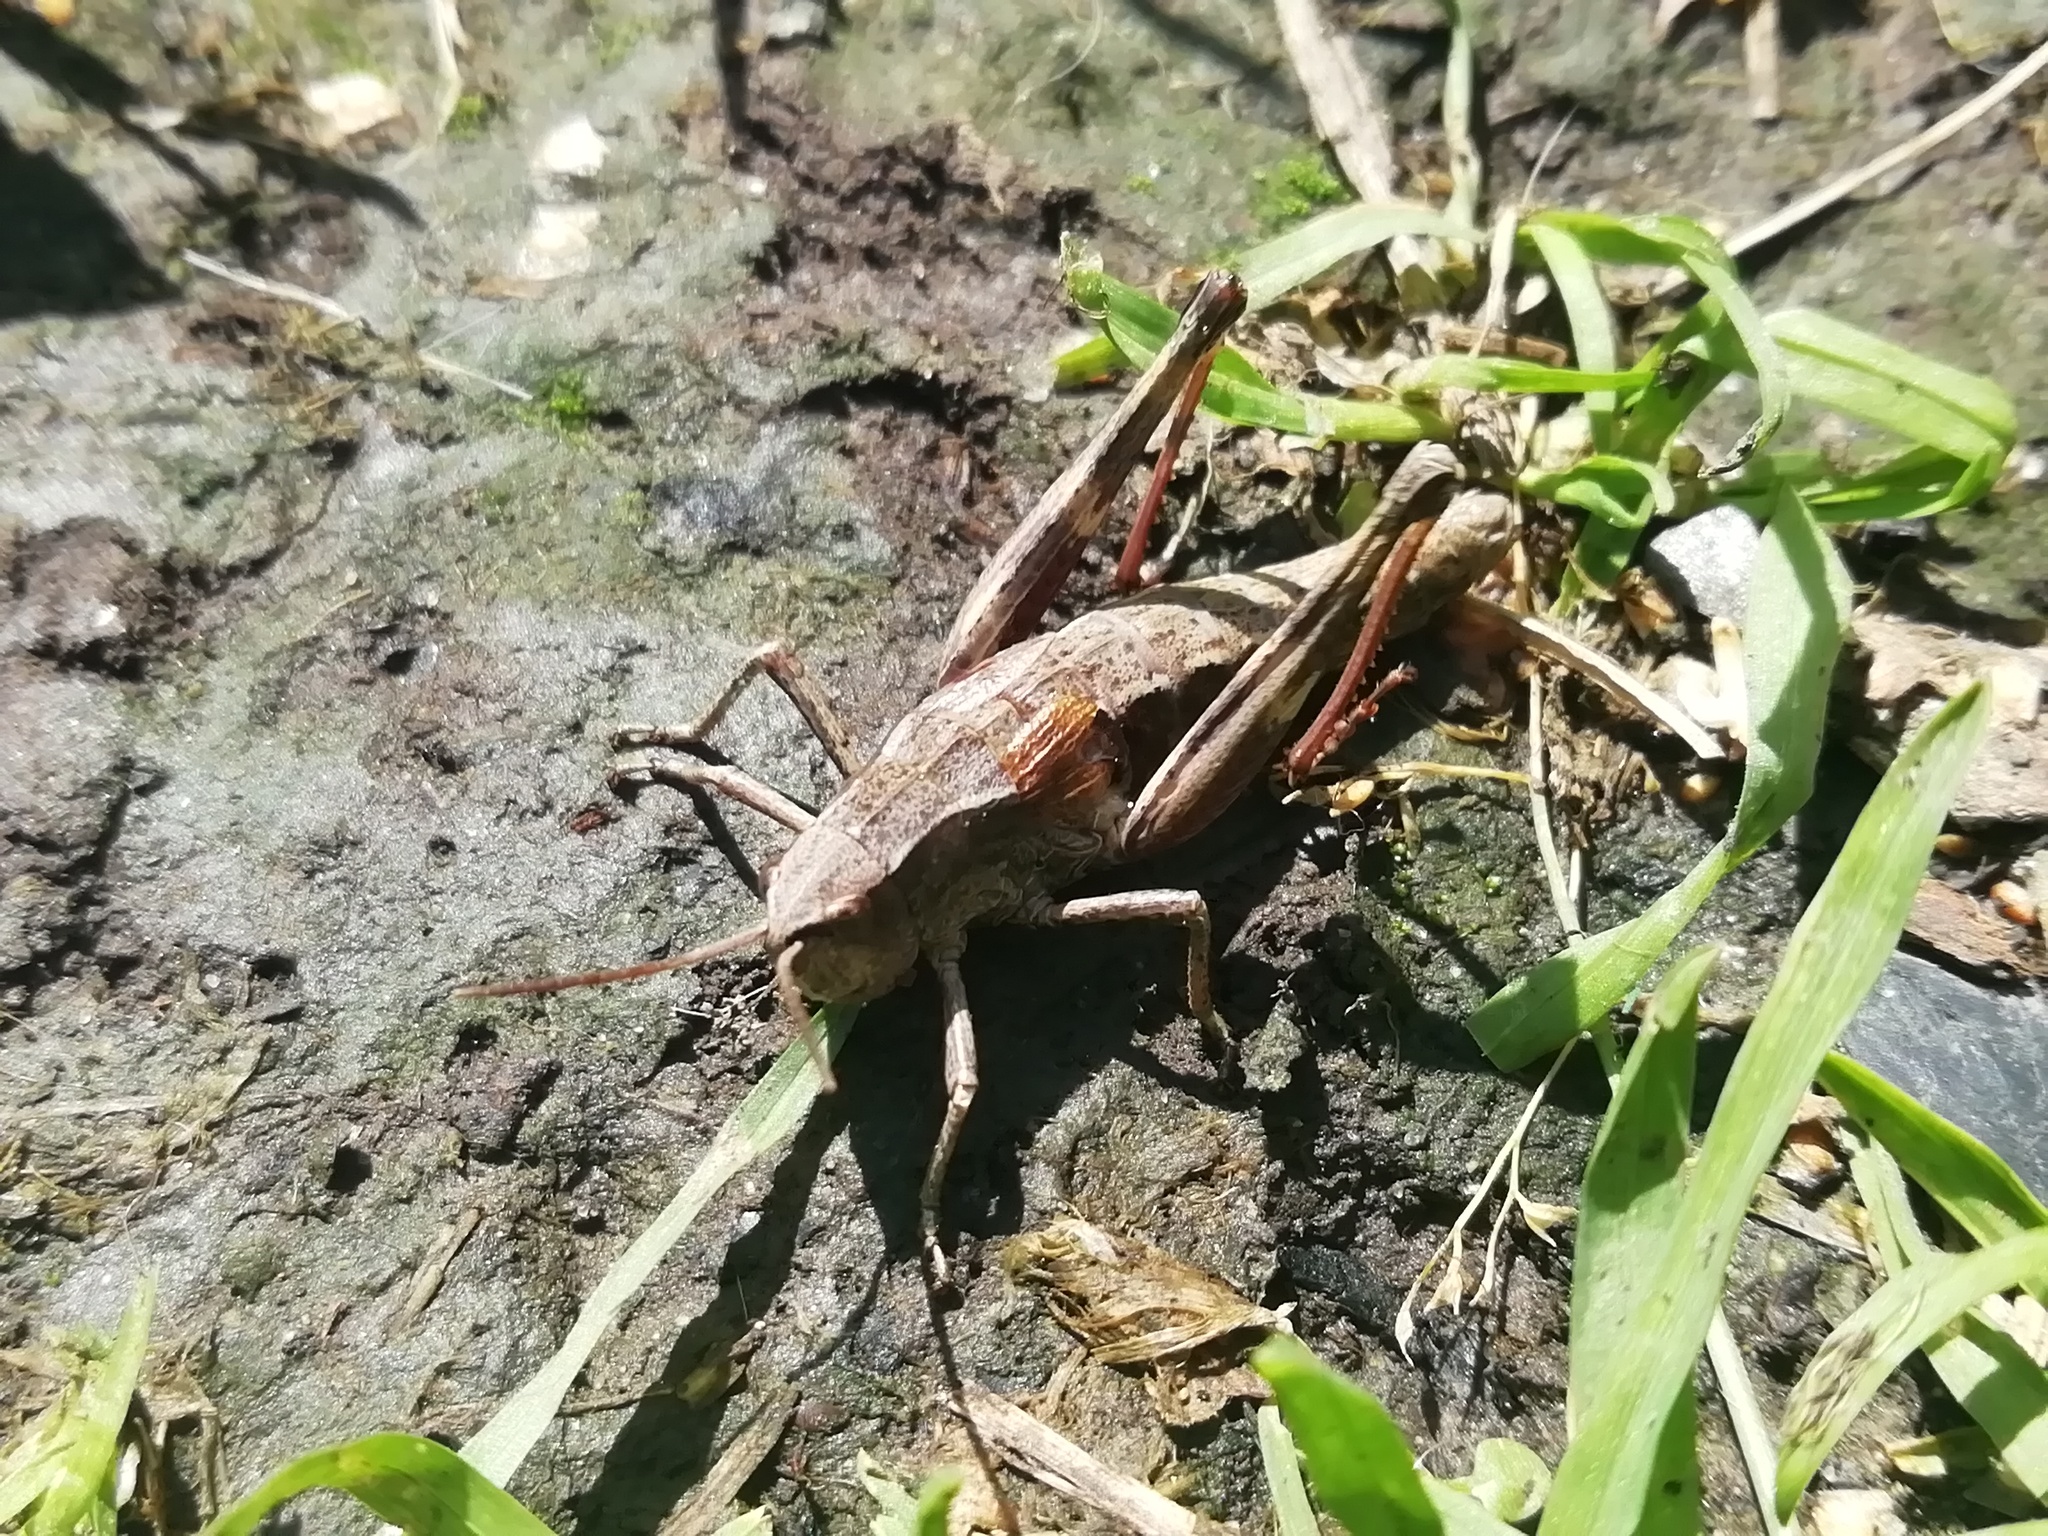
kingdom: Animalia
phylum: Arthropoda
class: Insecta
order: Orthoptera
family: Acrididae
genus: Podismopsis
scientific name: Podismopsis poppiusi
